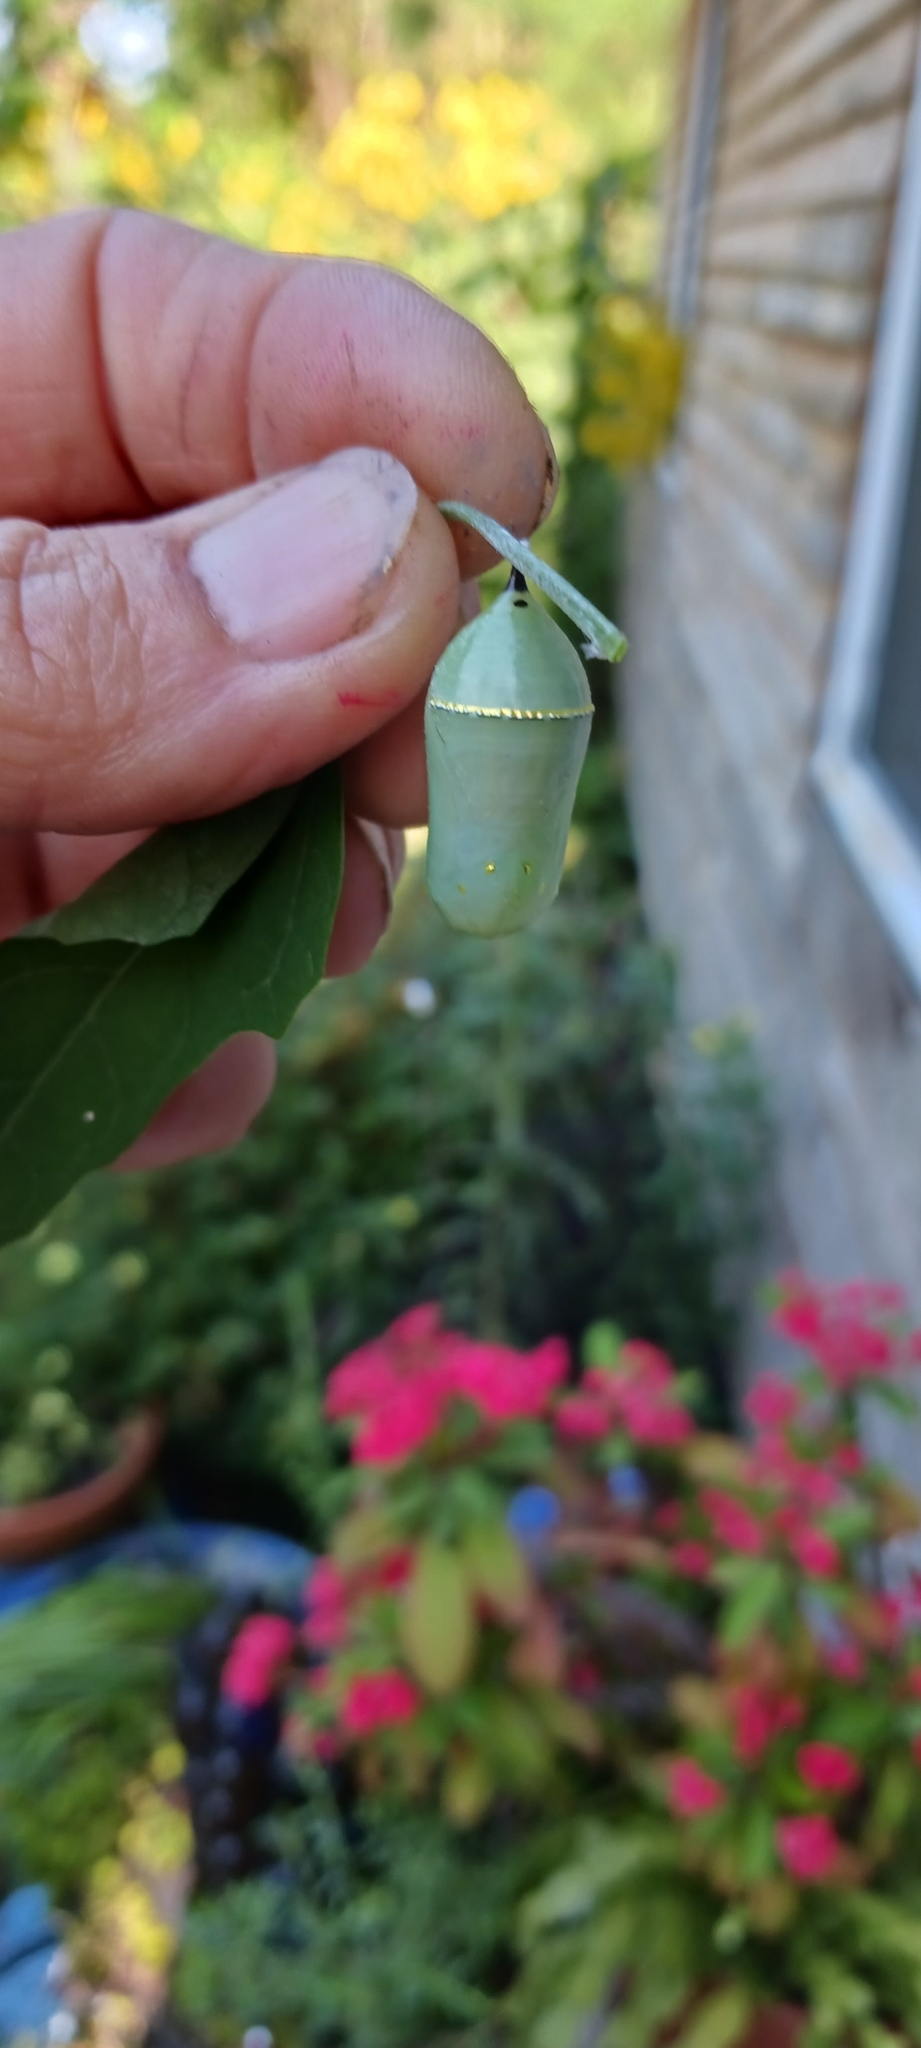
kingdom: Animalia
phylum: Arthropoda
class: Insecta
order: Lepidoptera
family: Nymphalidae
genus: Danaus
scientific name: Danaus plexippus
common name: Monarch
